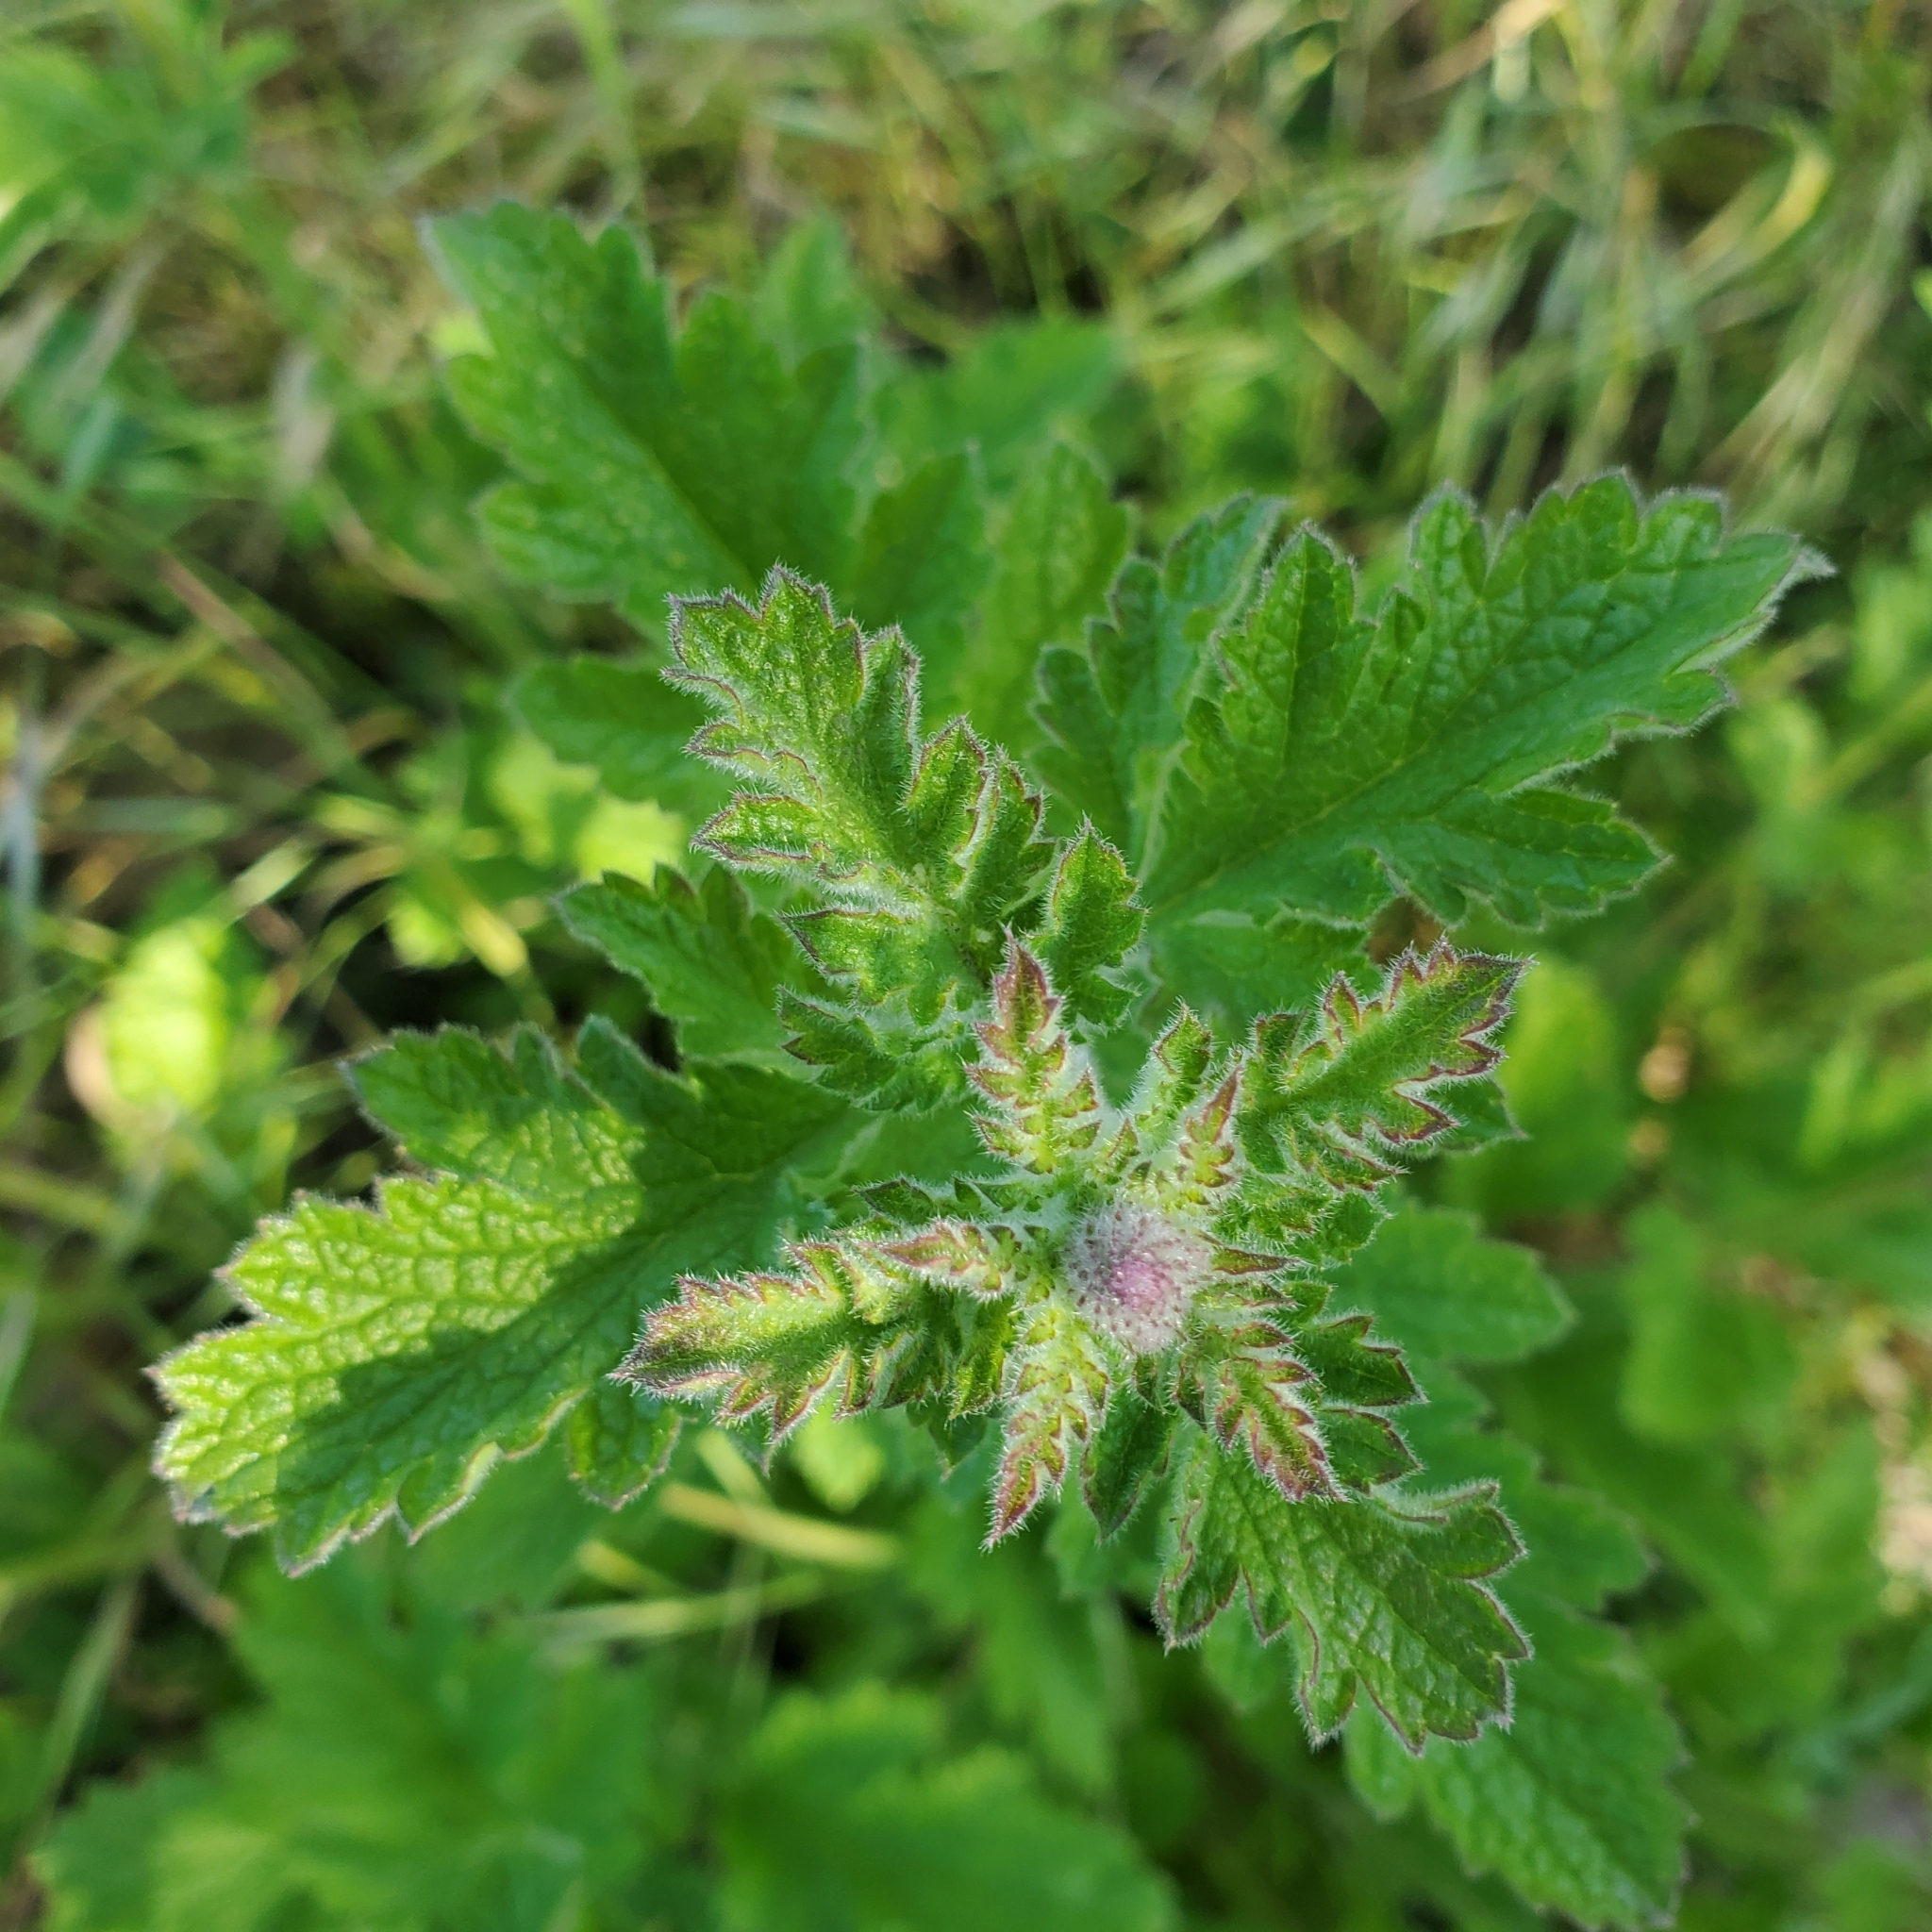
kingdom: Plantae
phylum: Tracheophyta
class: Magnoliopsida
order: Lamiales
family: Verbenaceae
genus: Verbena
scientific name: Verbena lasiostachys
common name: Vervain
